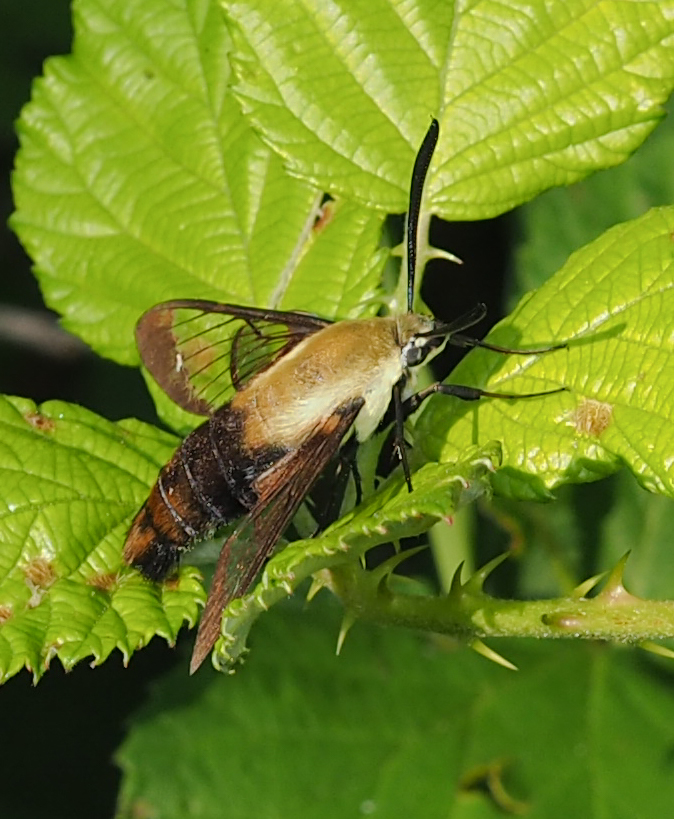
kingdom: Animalia
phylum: Arthropoda
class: Insecta
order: Lepidoptera
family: Sphingidae
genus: Hemaris
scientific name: Hemaris diffinis
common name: Bumblebee moth
